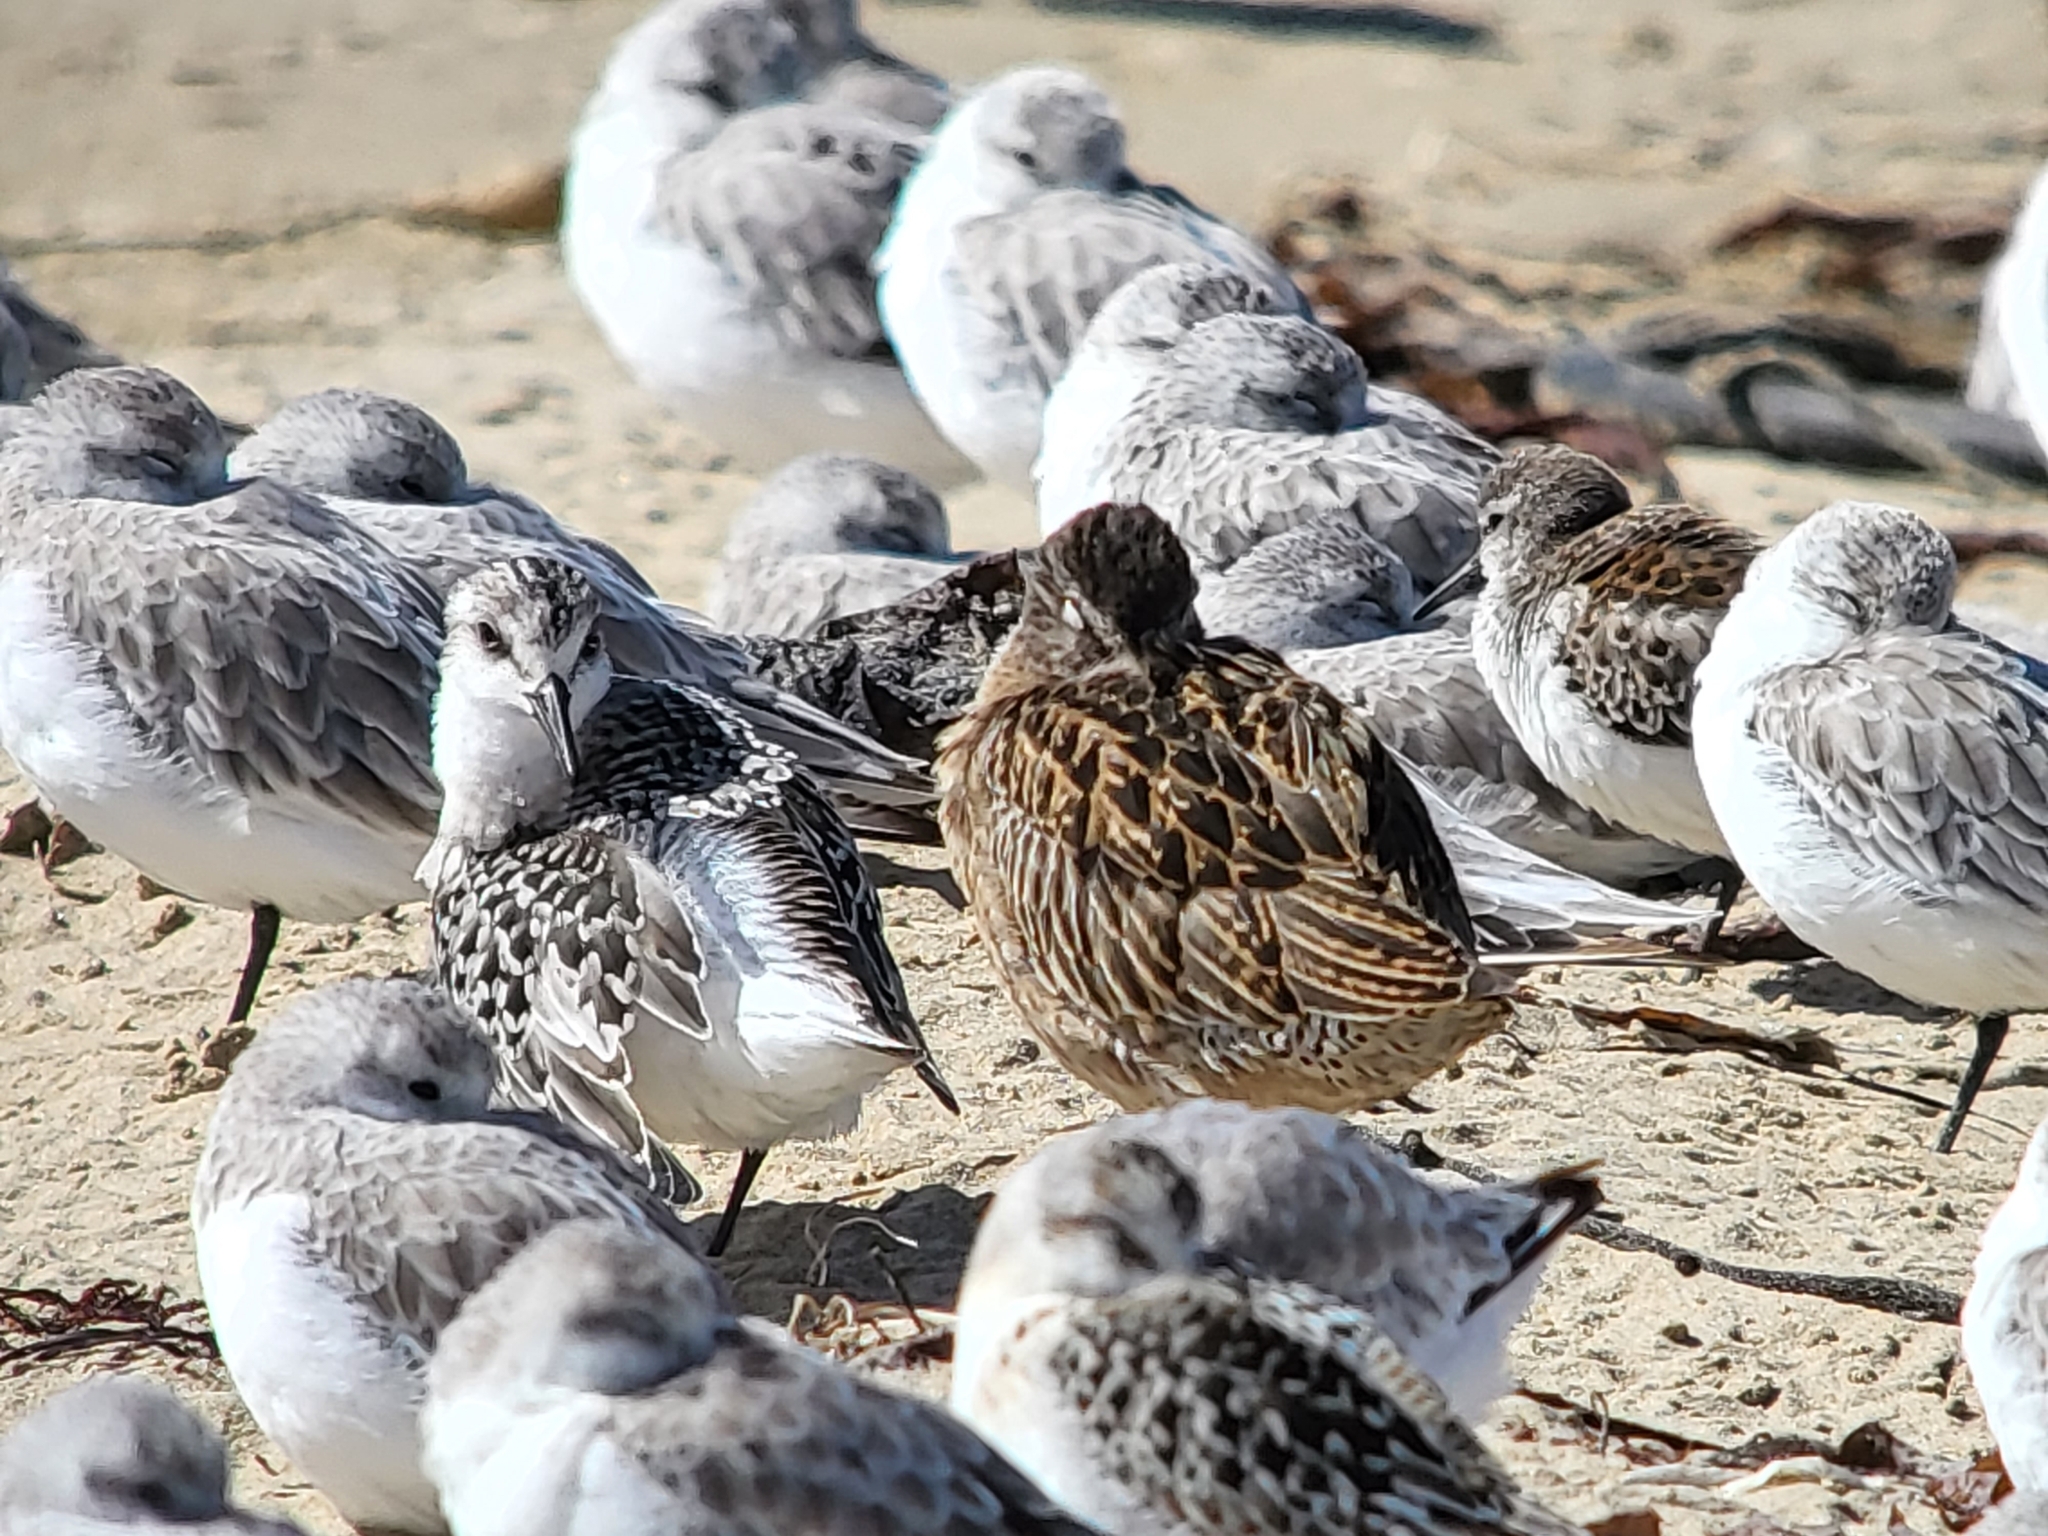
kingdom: Animalia
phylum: Chordata
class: Aves
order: Charadriiformes
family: Scolopacidae
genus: Calidris
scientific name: Calidris alba
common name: Sanderling
